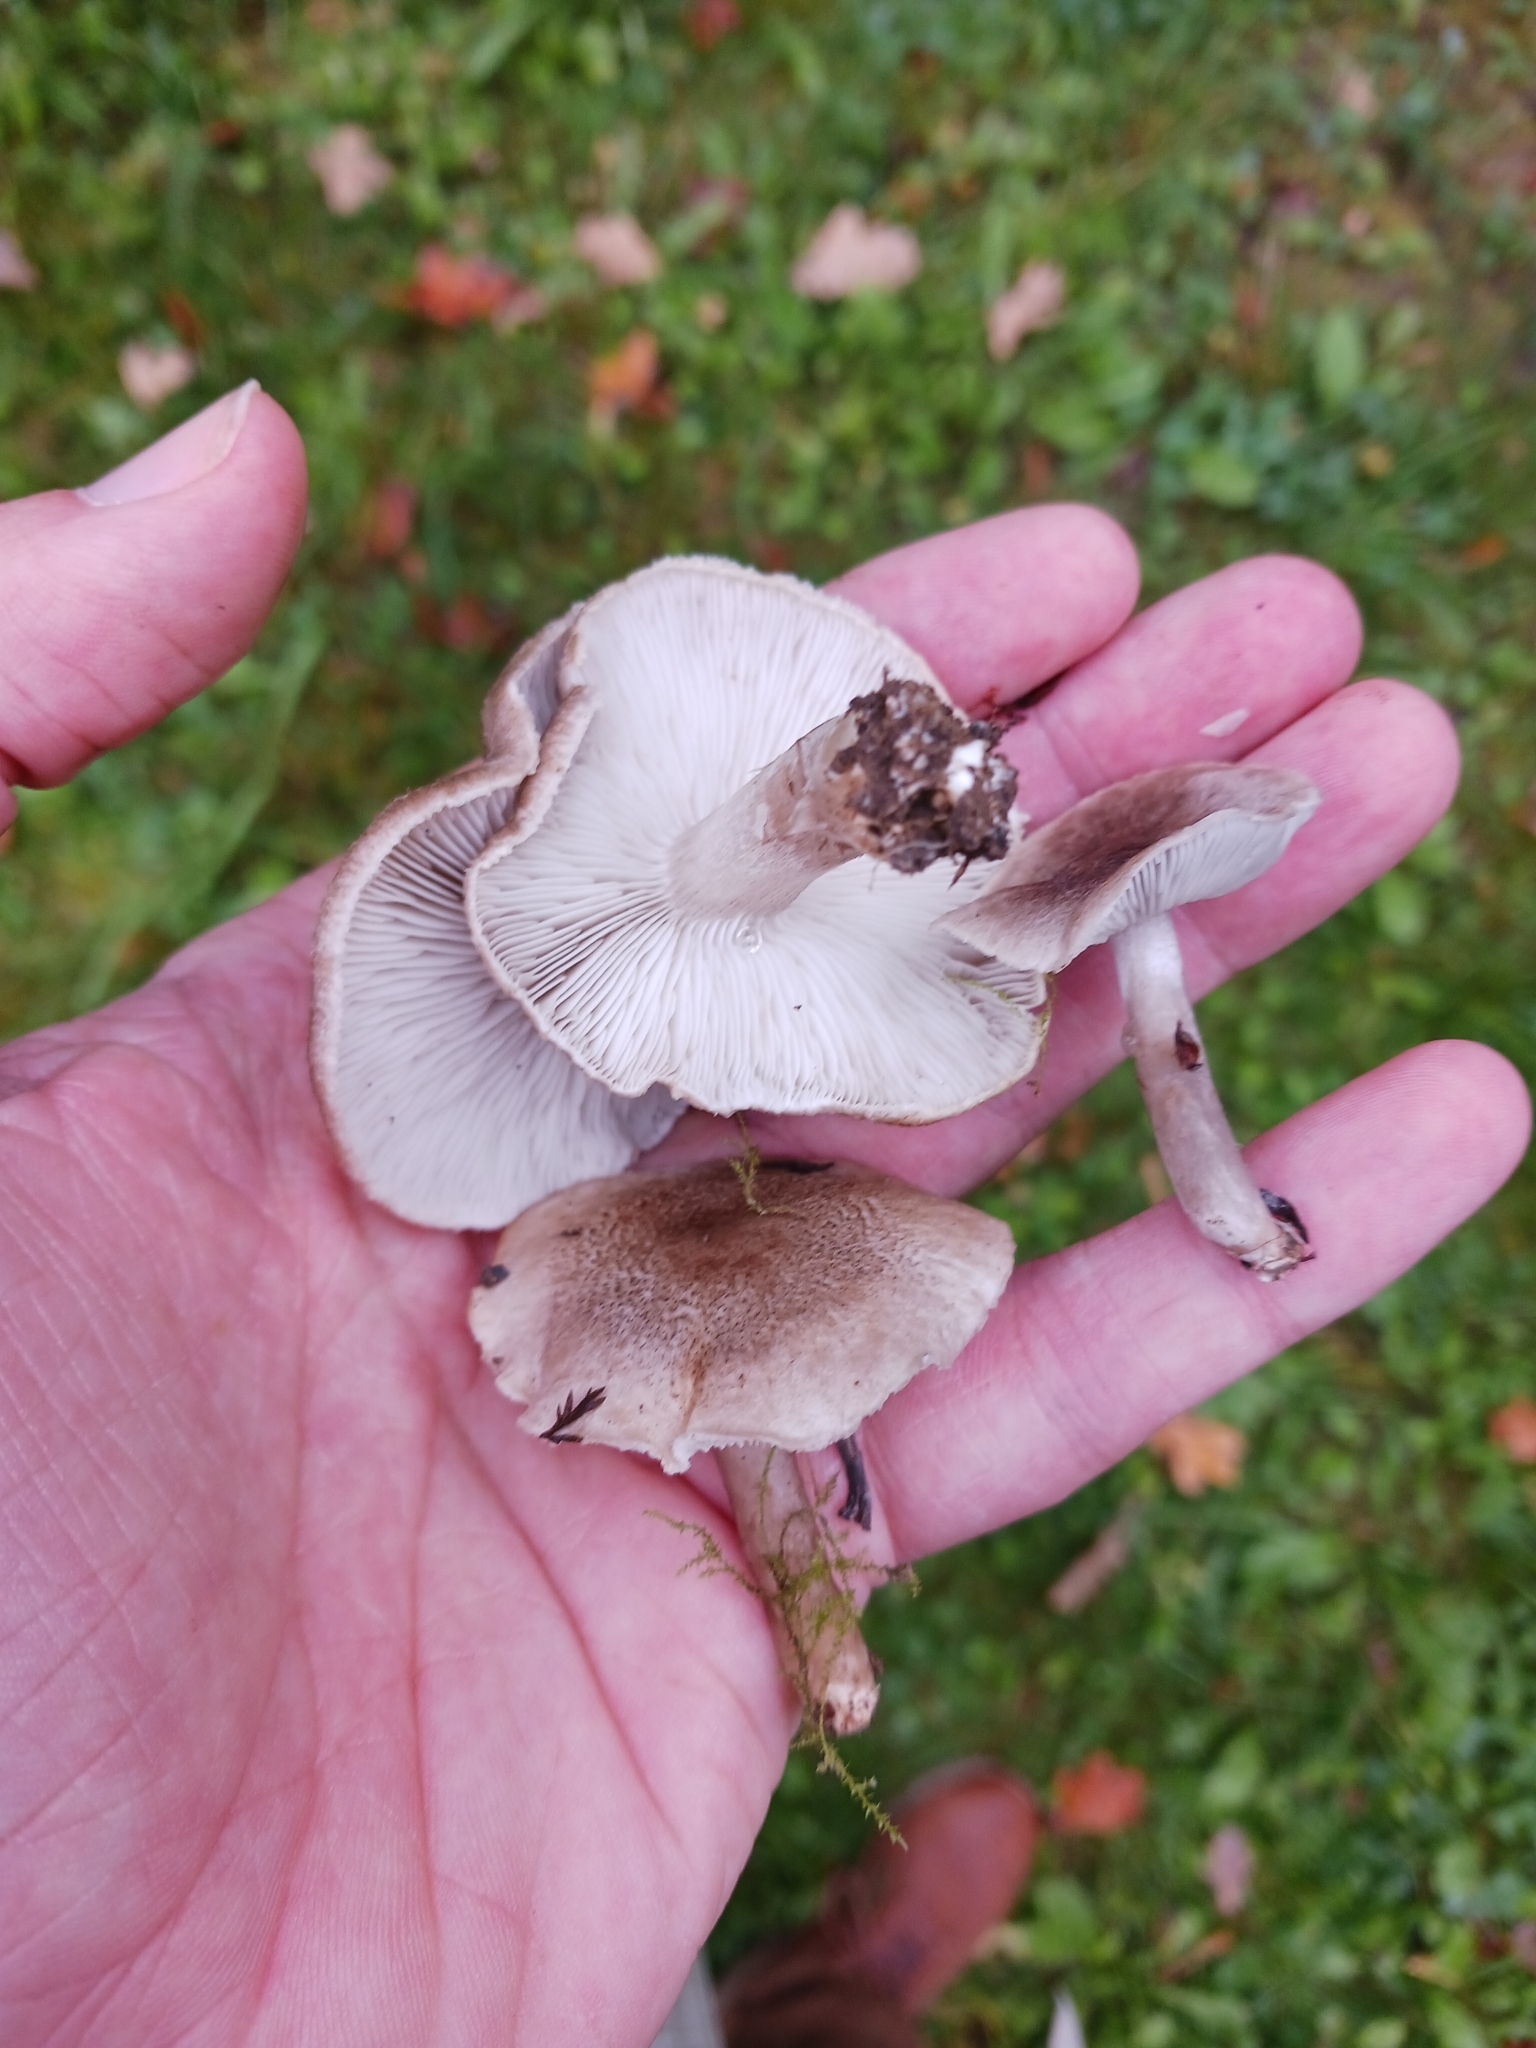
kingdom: Fungi
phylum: Basidiomycota
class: Agaricomycetes
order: Agaricales
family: Tricholomataceae
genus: Tricholoma
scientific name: Tricholoma scalpturatum
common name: Yellowing knight
